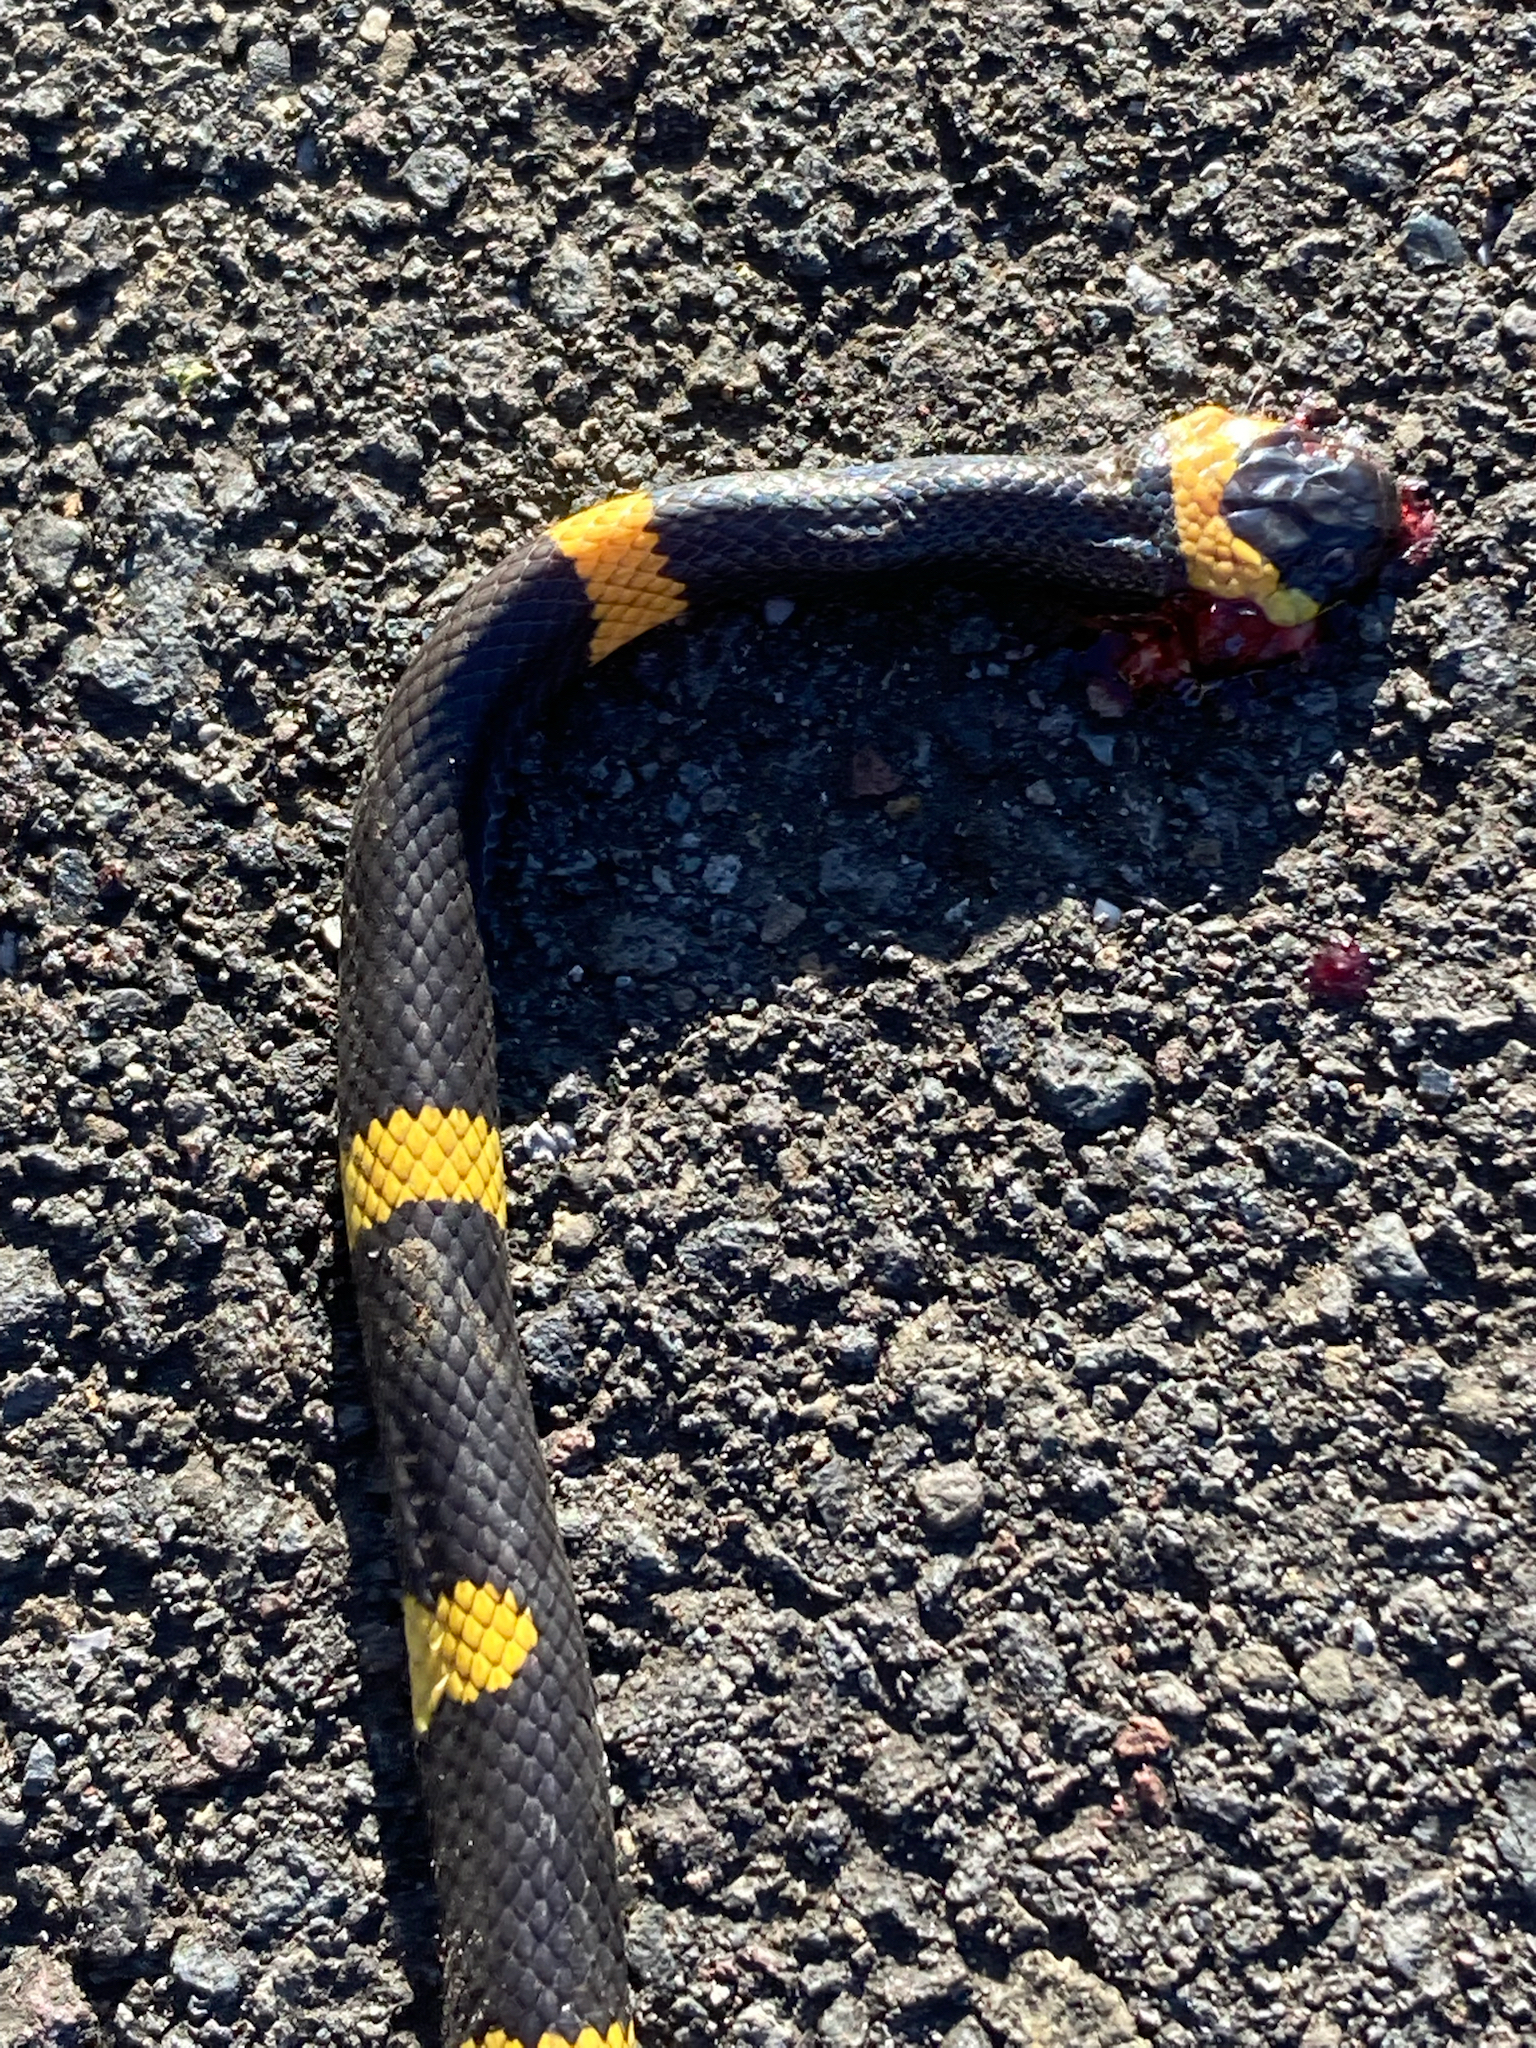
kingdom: Animalia
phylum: Chordata
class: Squamata
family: Colubridae
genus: Geophis
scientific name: Geophis
